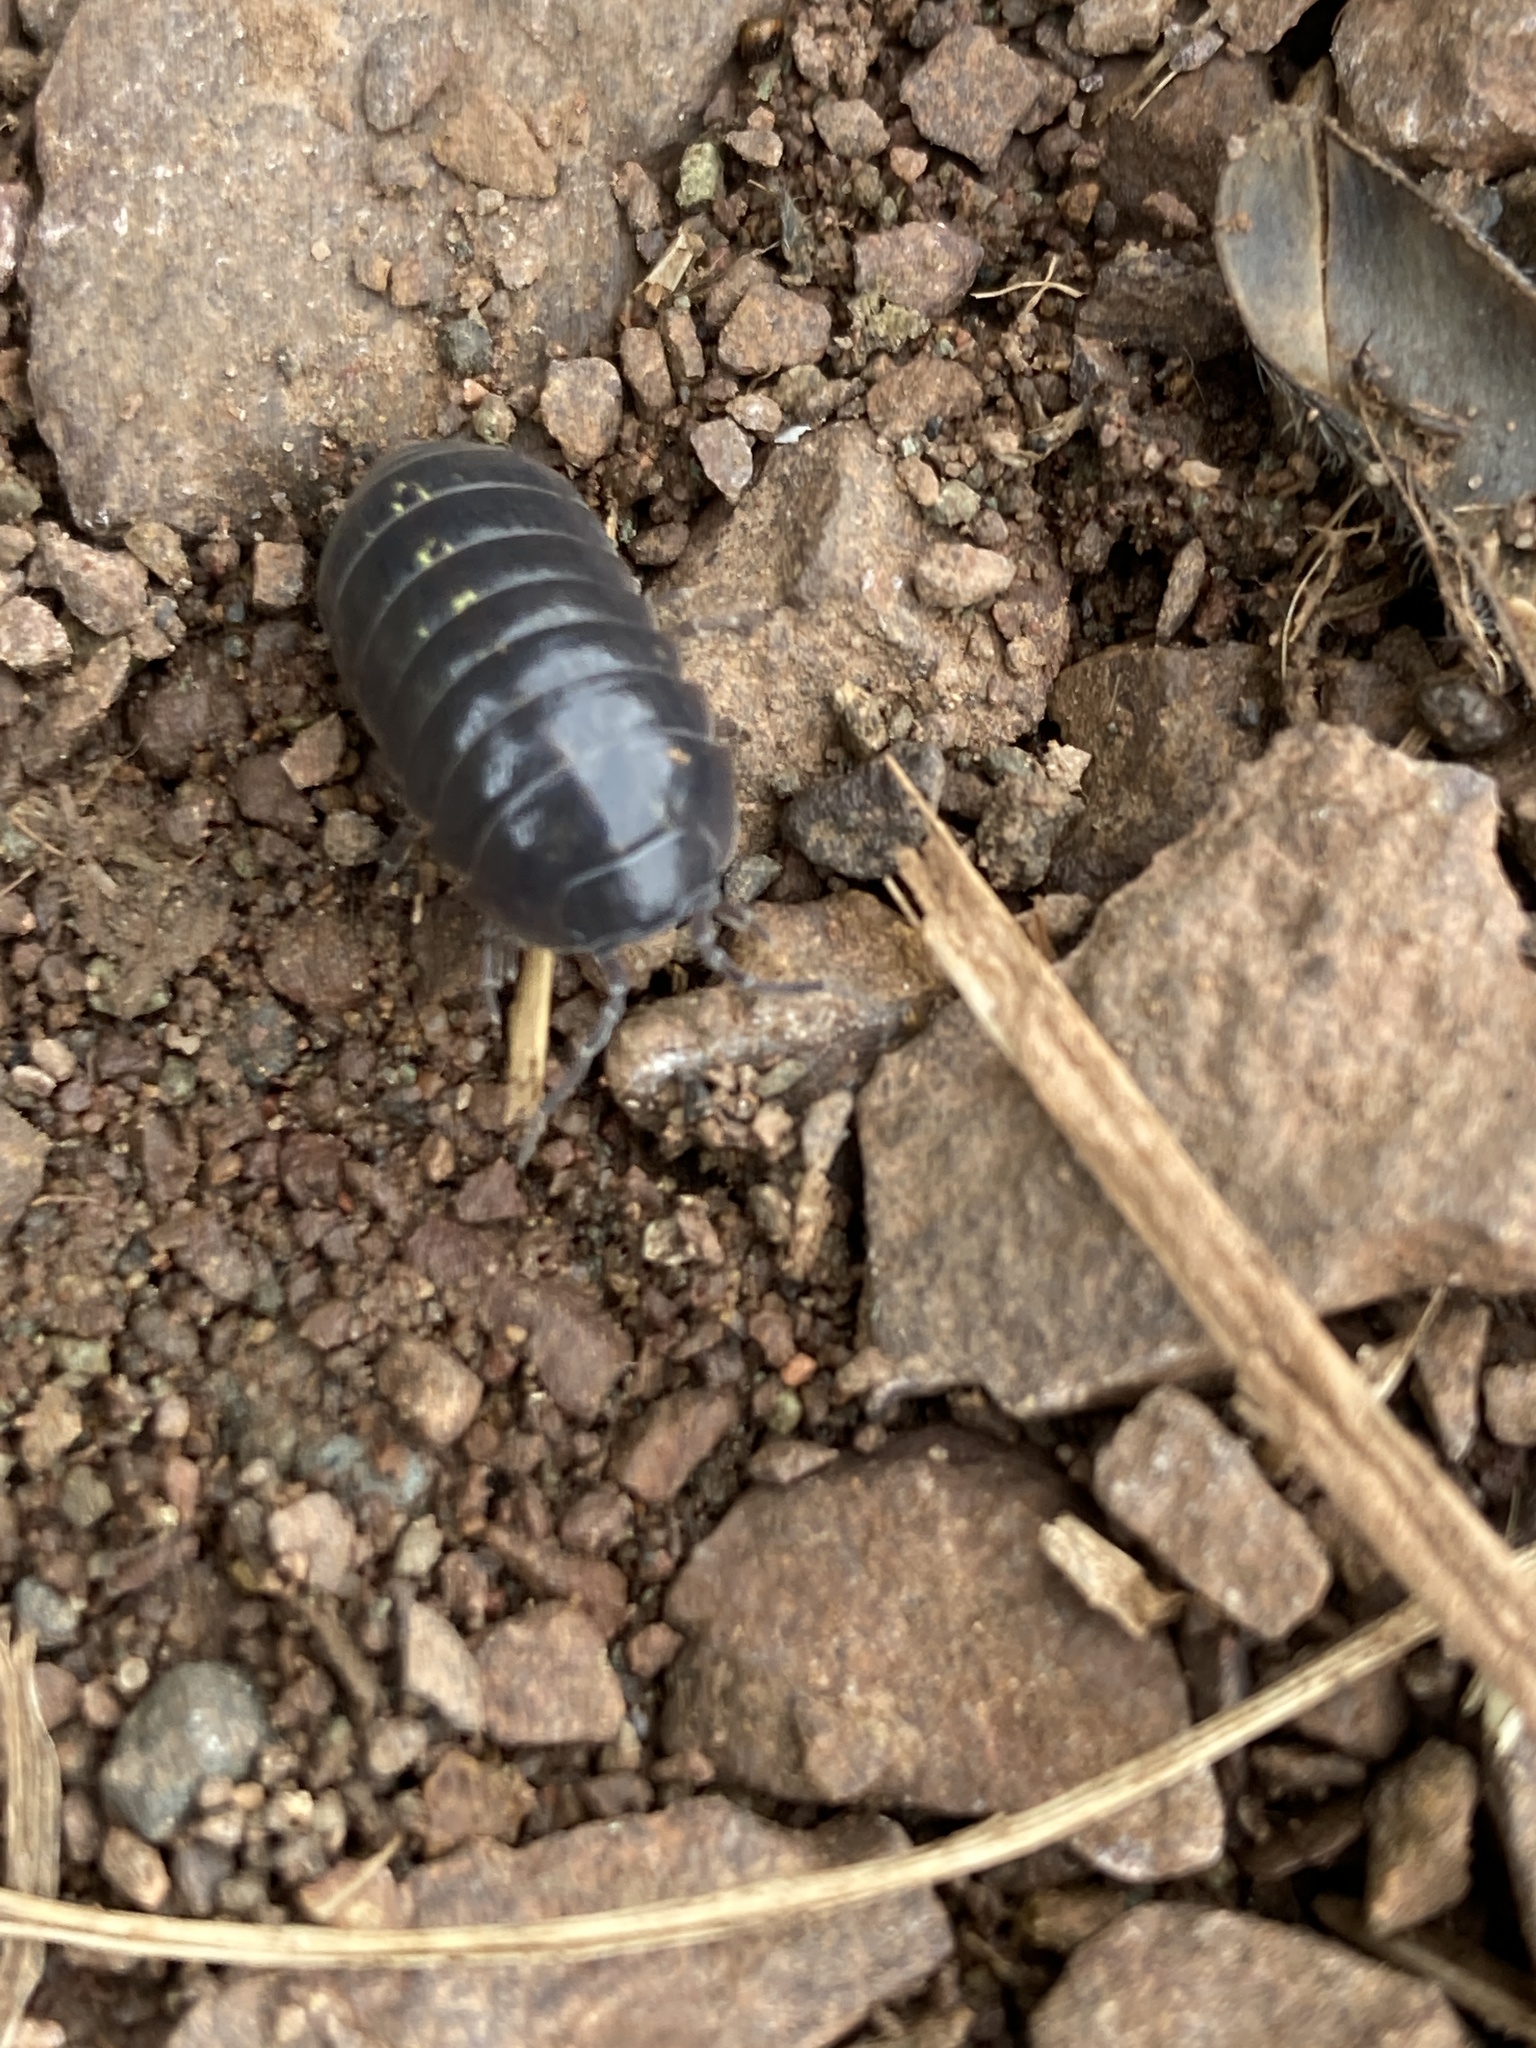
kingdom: Animalia
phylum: Arthropoda
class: Malacostraca
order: Isopoda
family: Armadillidiidae
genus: Armadillidium
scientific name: Armadillidium vulgare
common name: Common pill woodlouse
